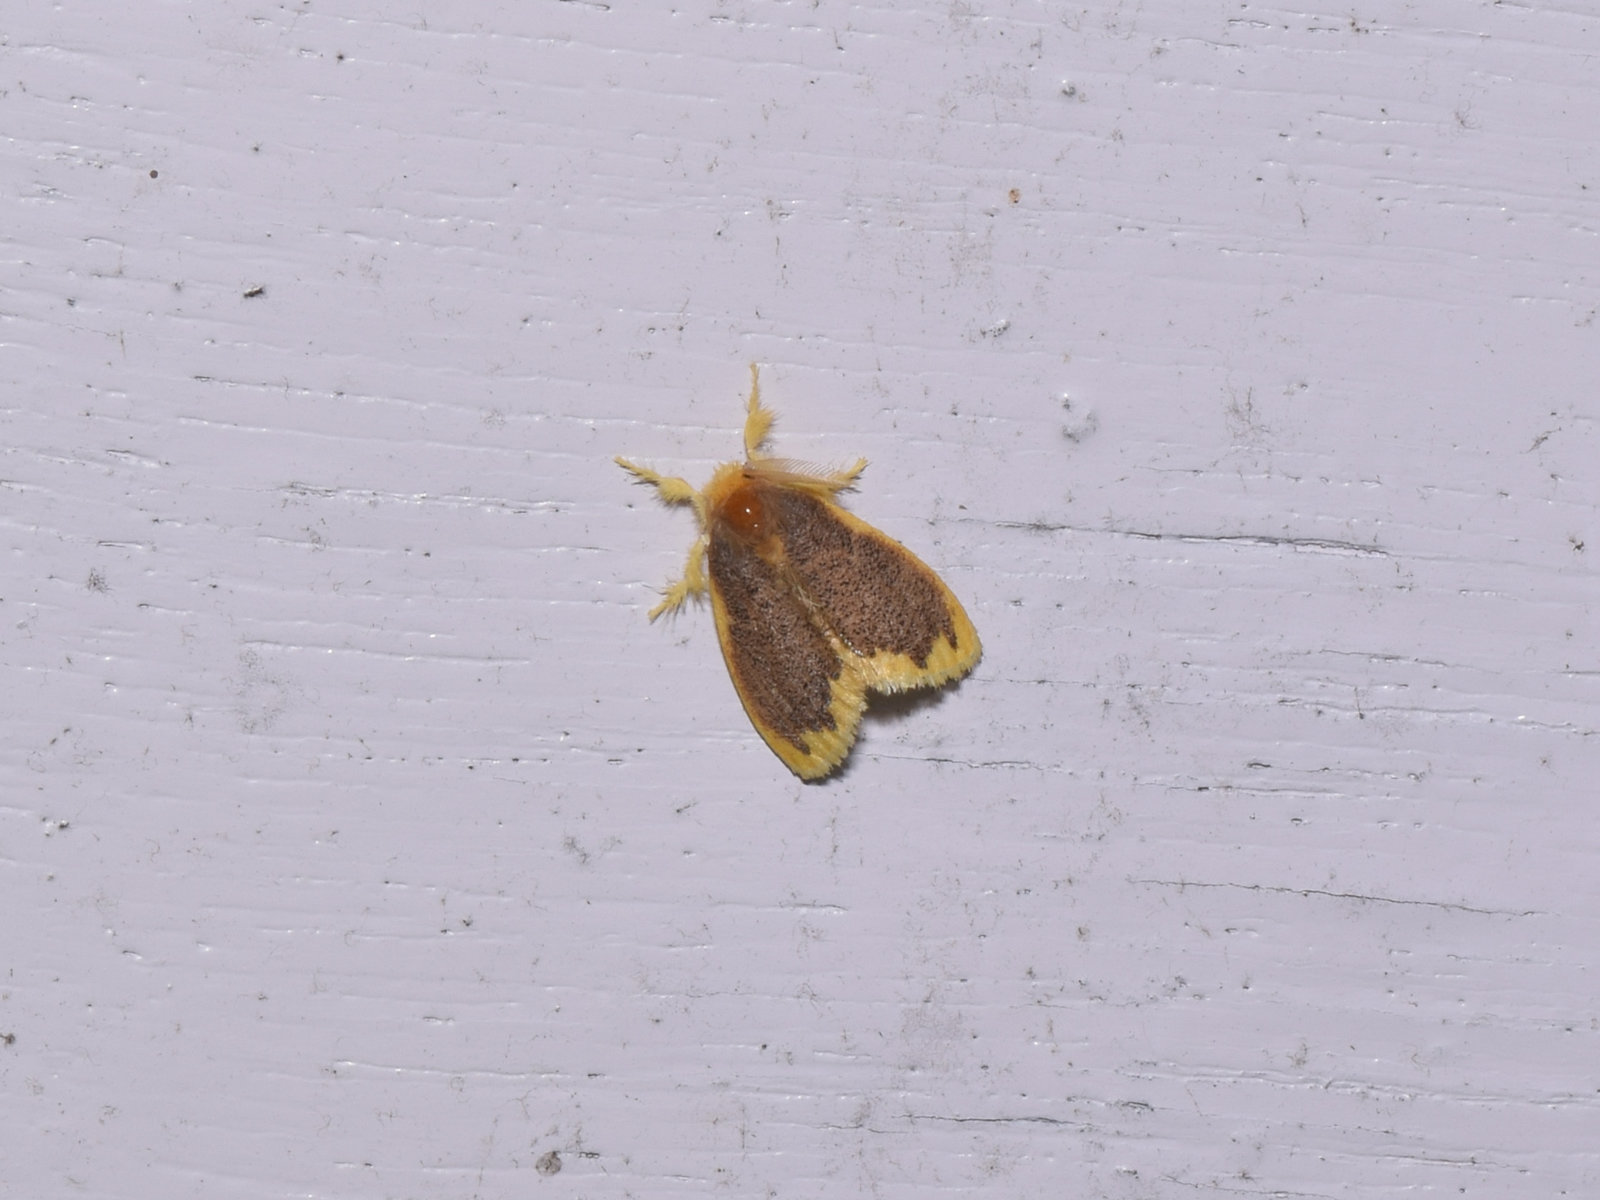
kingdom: Animalia
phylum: Arthropoda
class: Insecta
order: Lepidoptera
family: Erebidae
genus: Somena
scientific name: Somena scintillans
